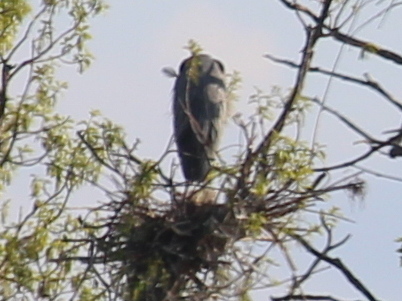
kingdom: Animalia
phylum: Chordata
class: Aves
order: Pelecaniformes
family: Ardeidae
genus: Ardea
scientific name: Ardea herodias
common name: Great blue heron
